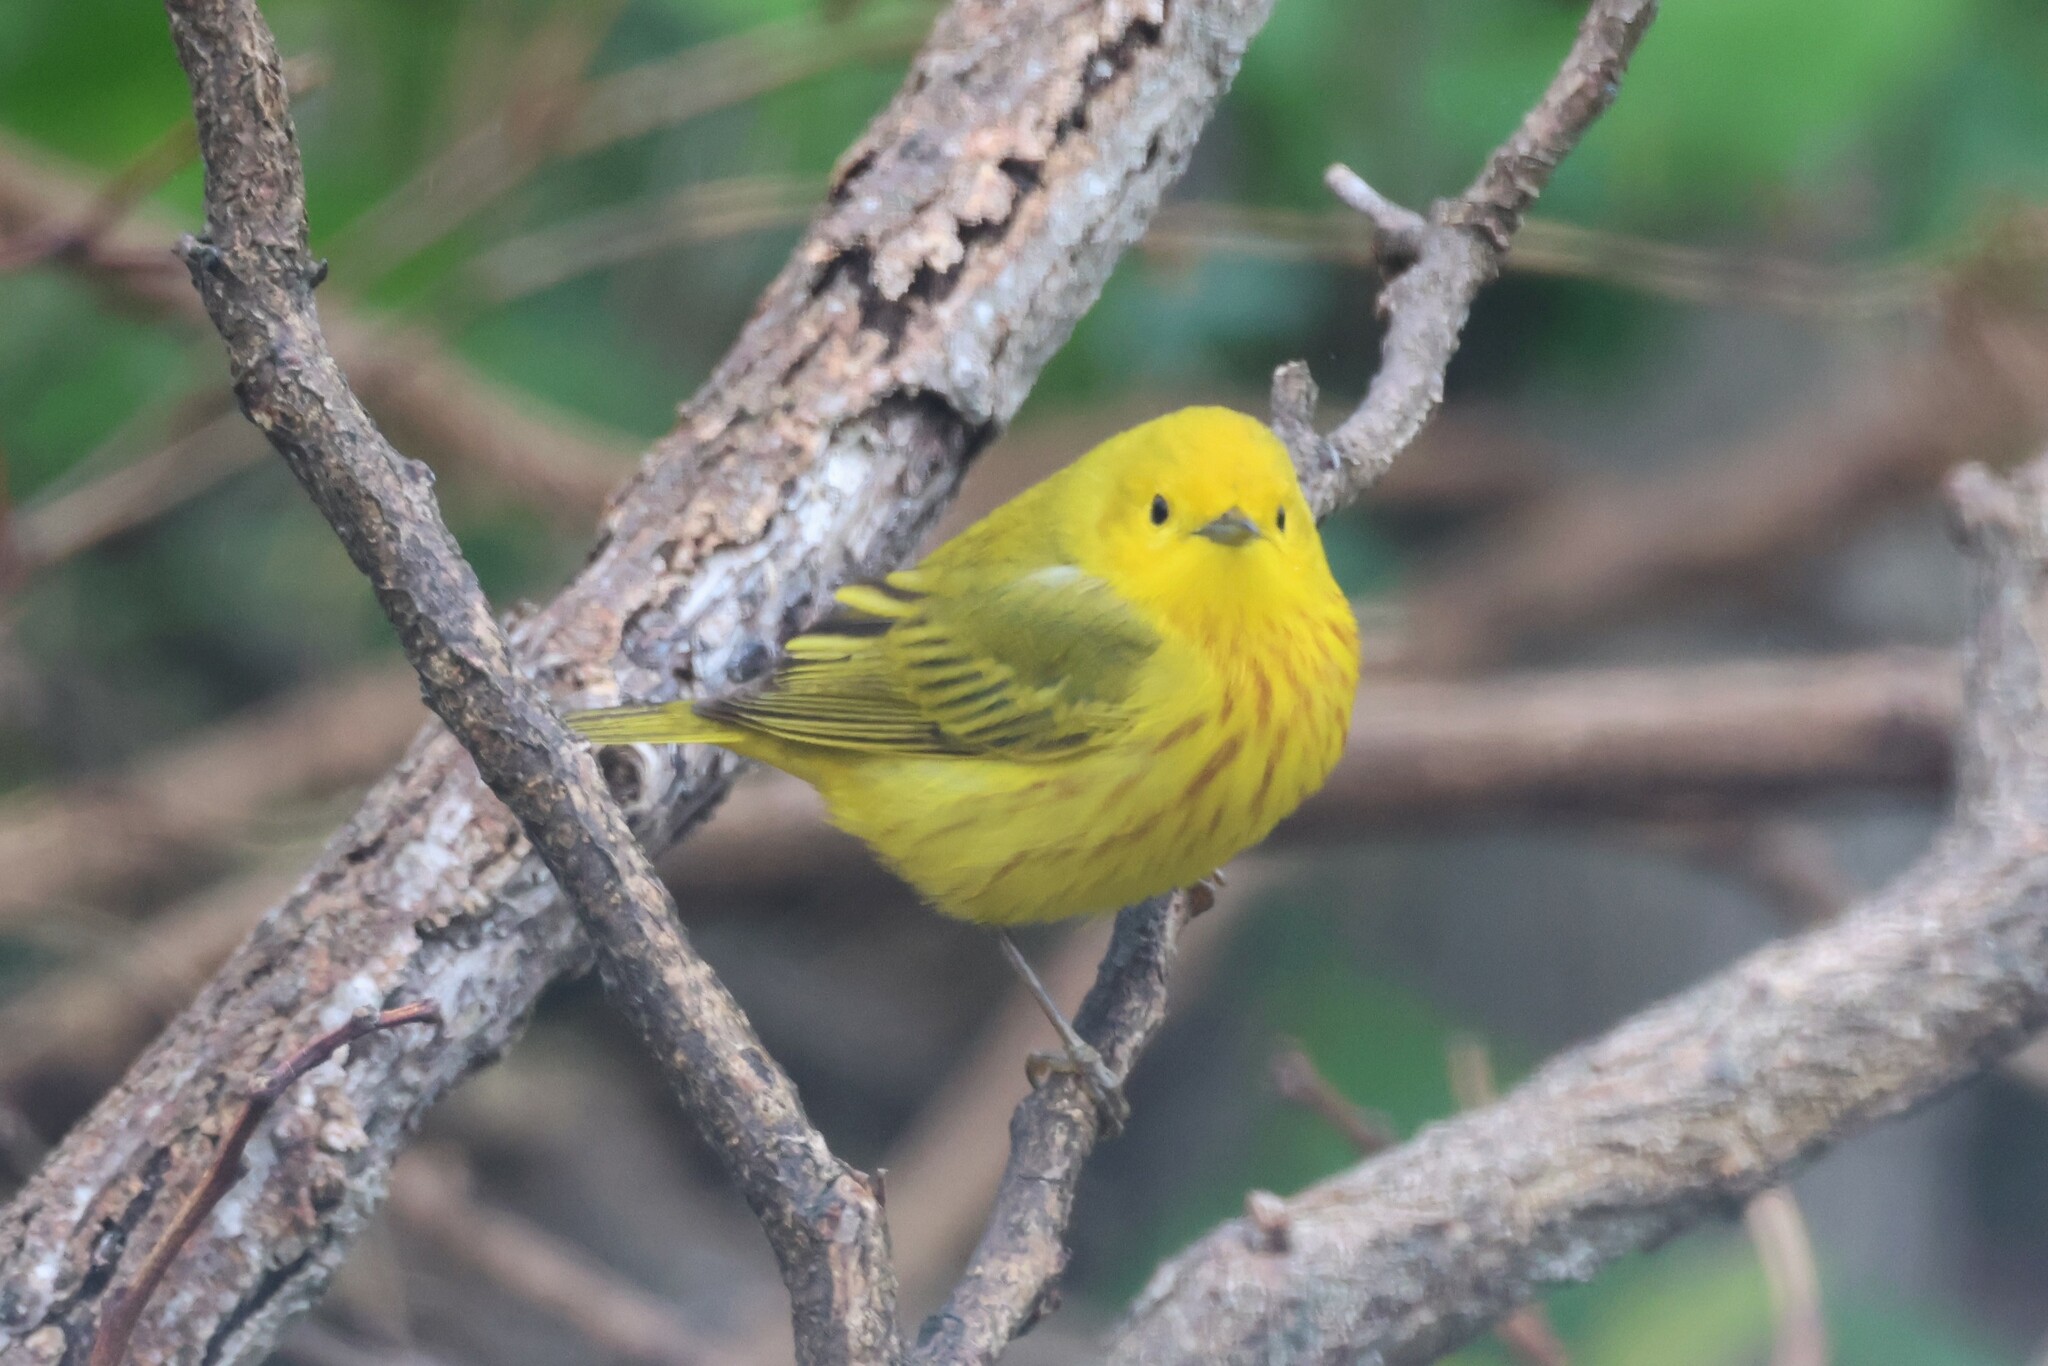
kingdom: Animalia
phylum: Chordata
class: Aves
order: Passeriformes
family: Parulidae
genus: Setophaga
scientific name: Setophaga petechia
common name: Yellow warbler
